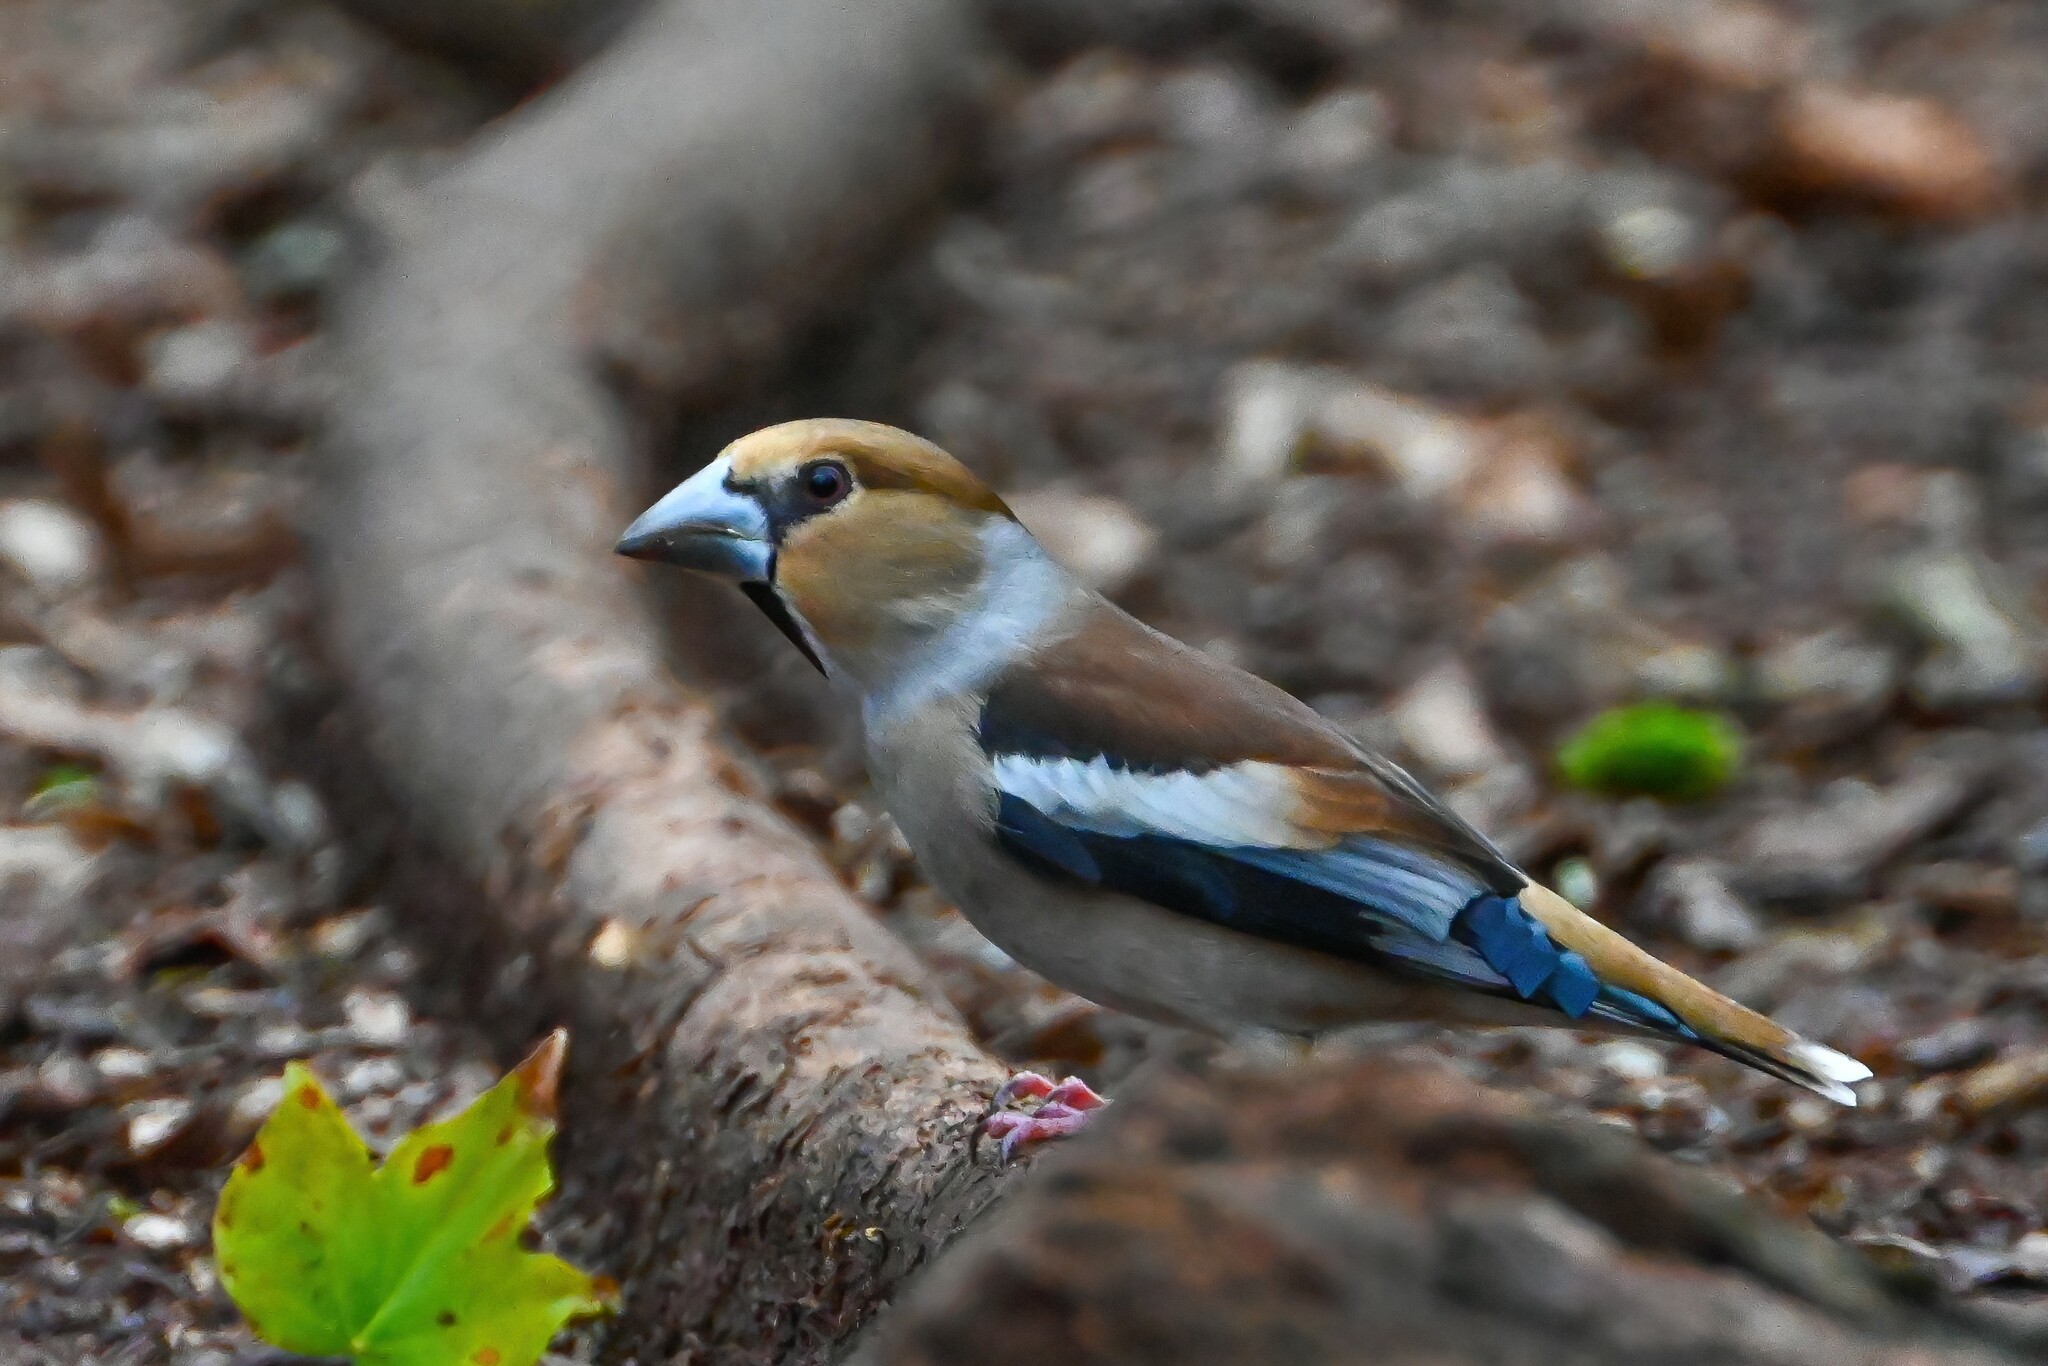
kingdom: Animalia
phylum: Chordata
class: Aves
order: Passeriformes
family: Fringillidae
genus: Coccothraustes
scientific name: Coccothraustes coccothraustes
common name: Hawfinch
